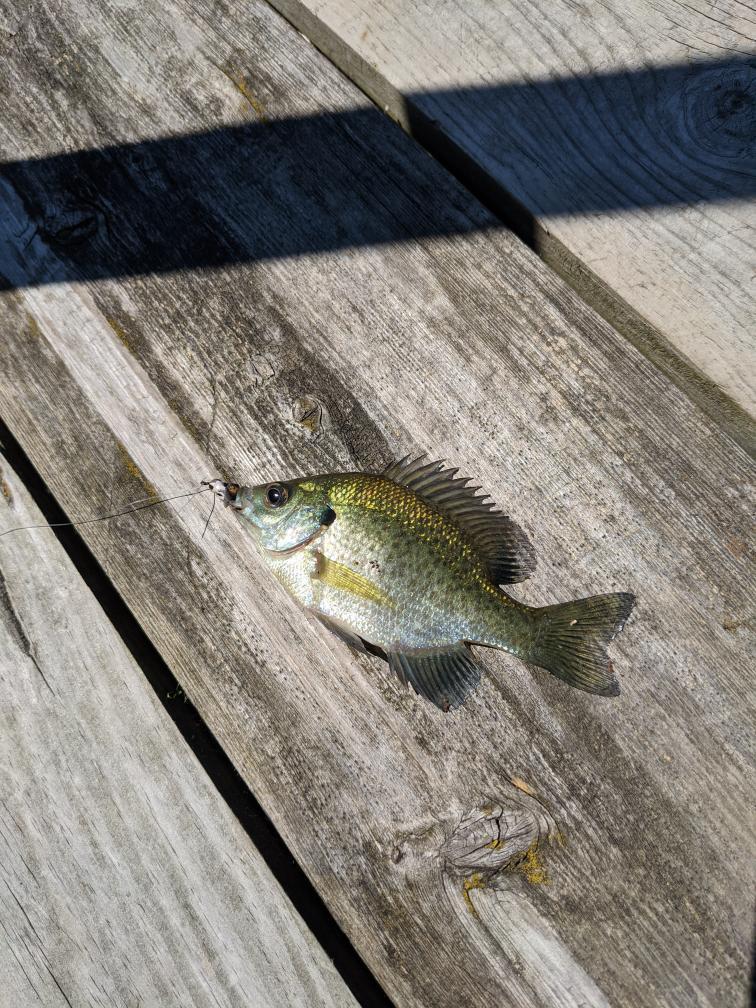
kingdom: Animalia
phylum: Chordata
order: Perciformes
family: Centrarchidae
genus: Lepomis
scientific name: Lepomis macrochirus
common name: Bluegill
